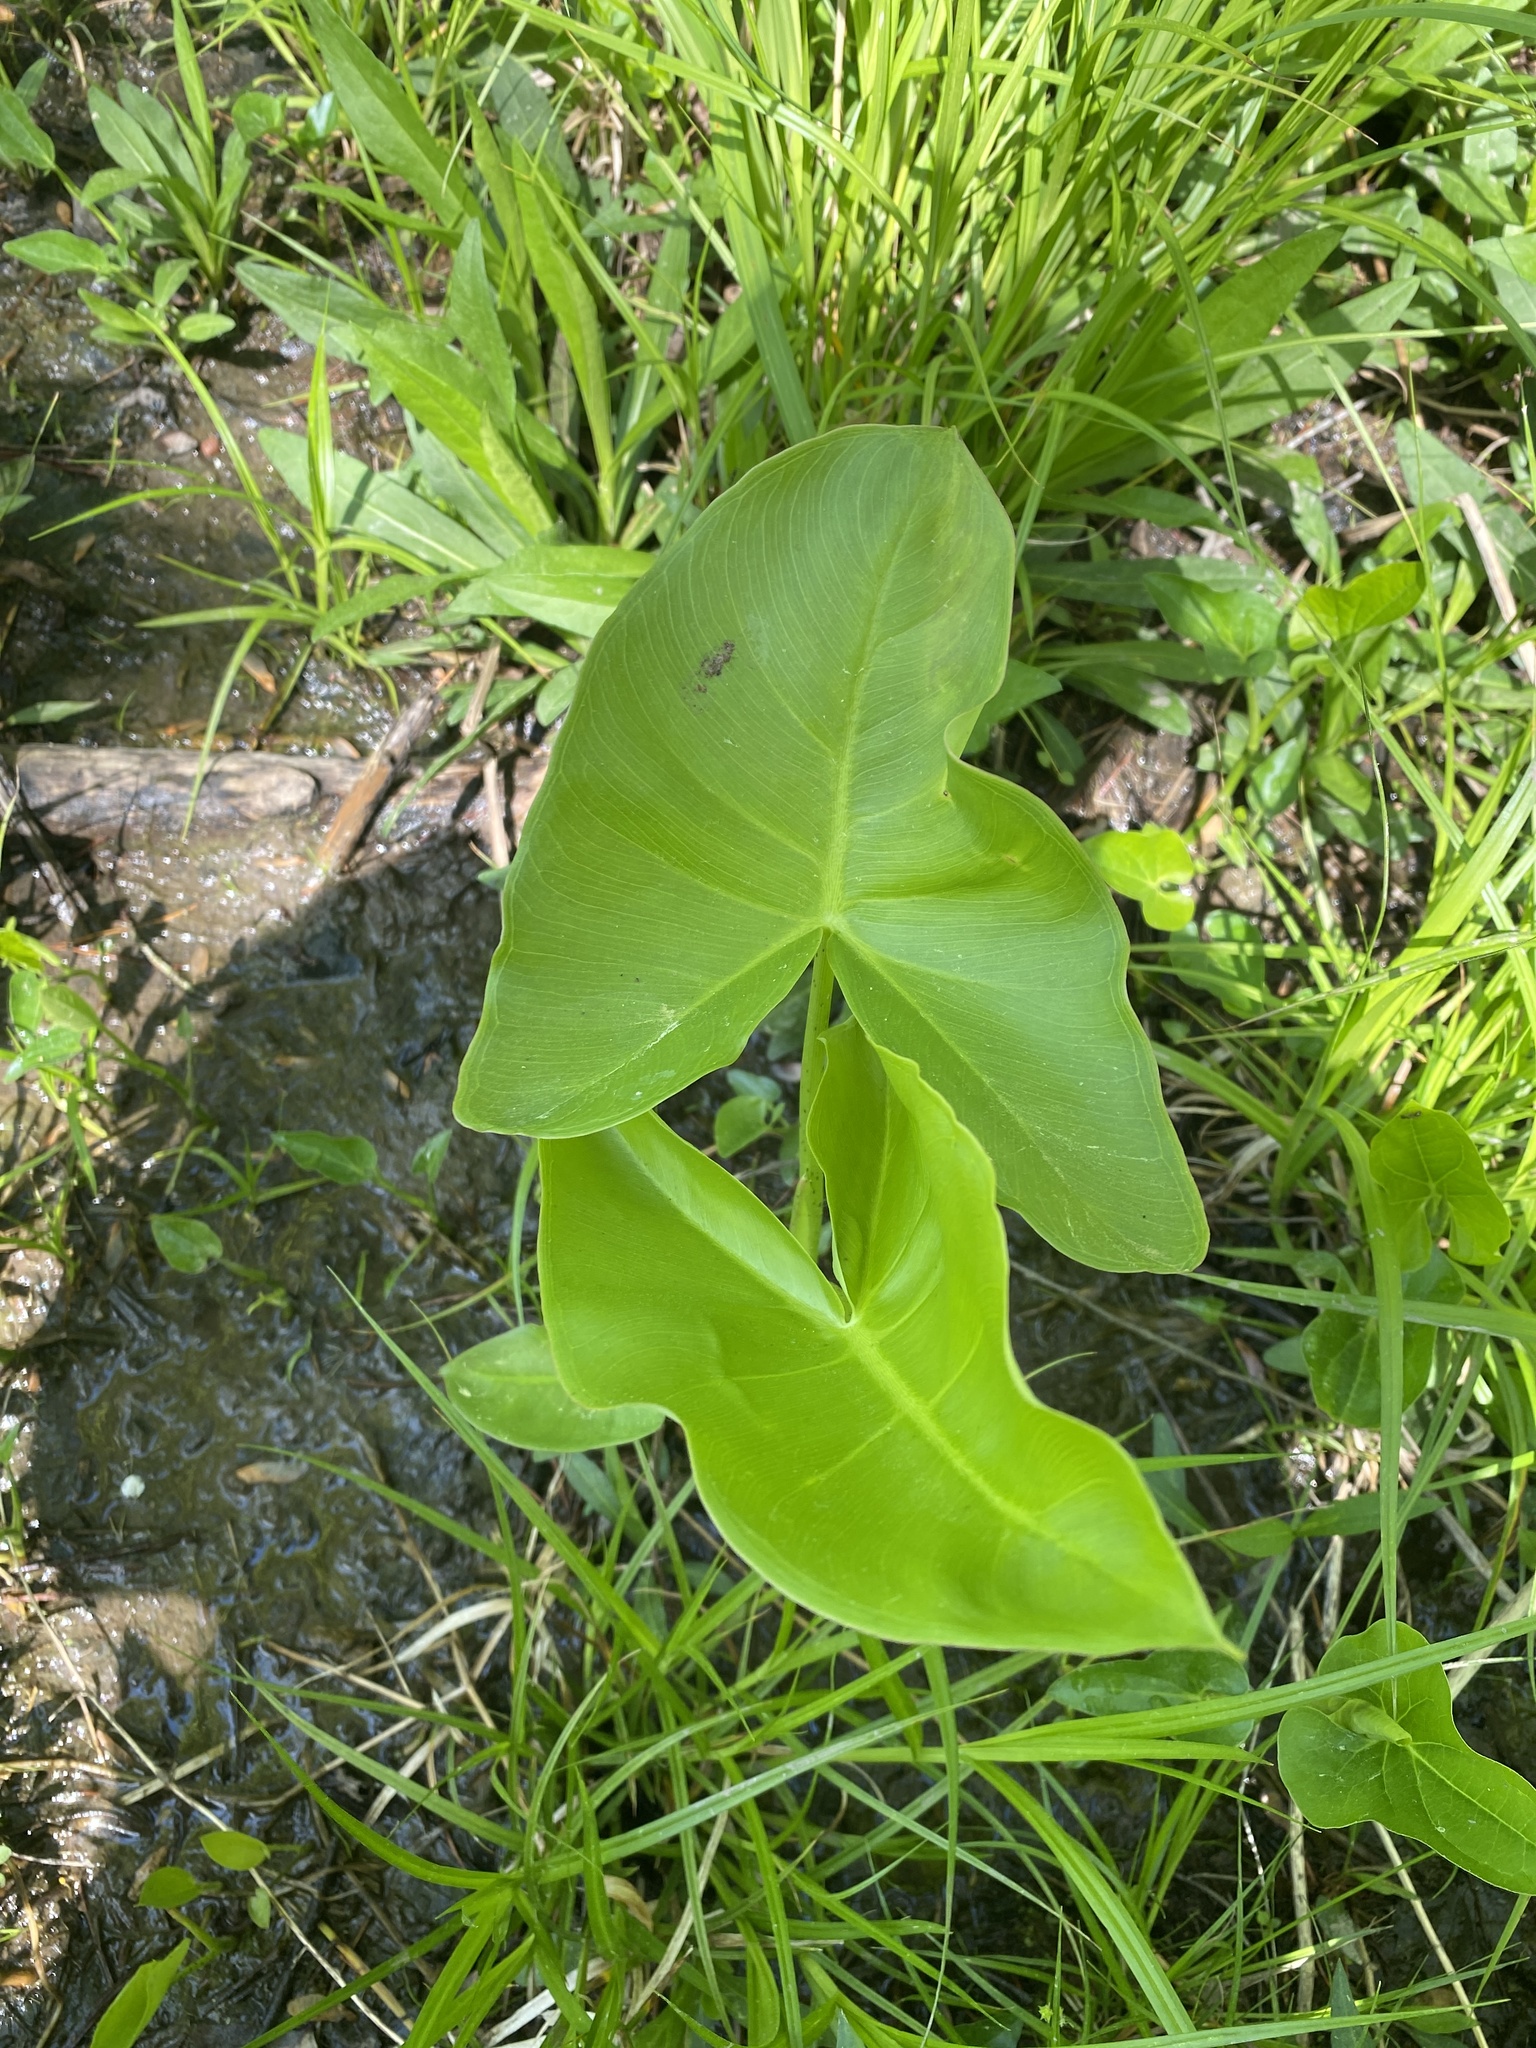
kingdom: Plantae
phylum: Tracheophyta
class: Liliopsida
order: Alismatales
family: Araceae
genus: Peltandra
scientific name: Peltandra virginica
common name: Arrow arum
